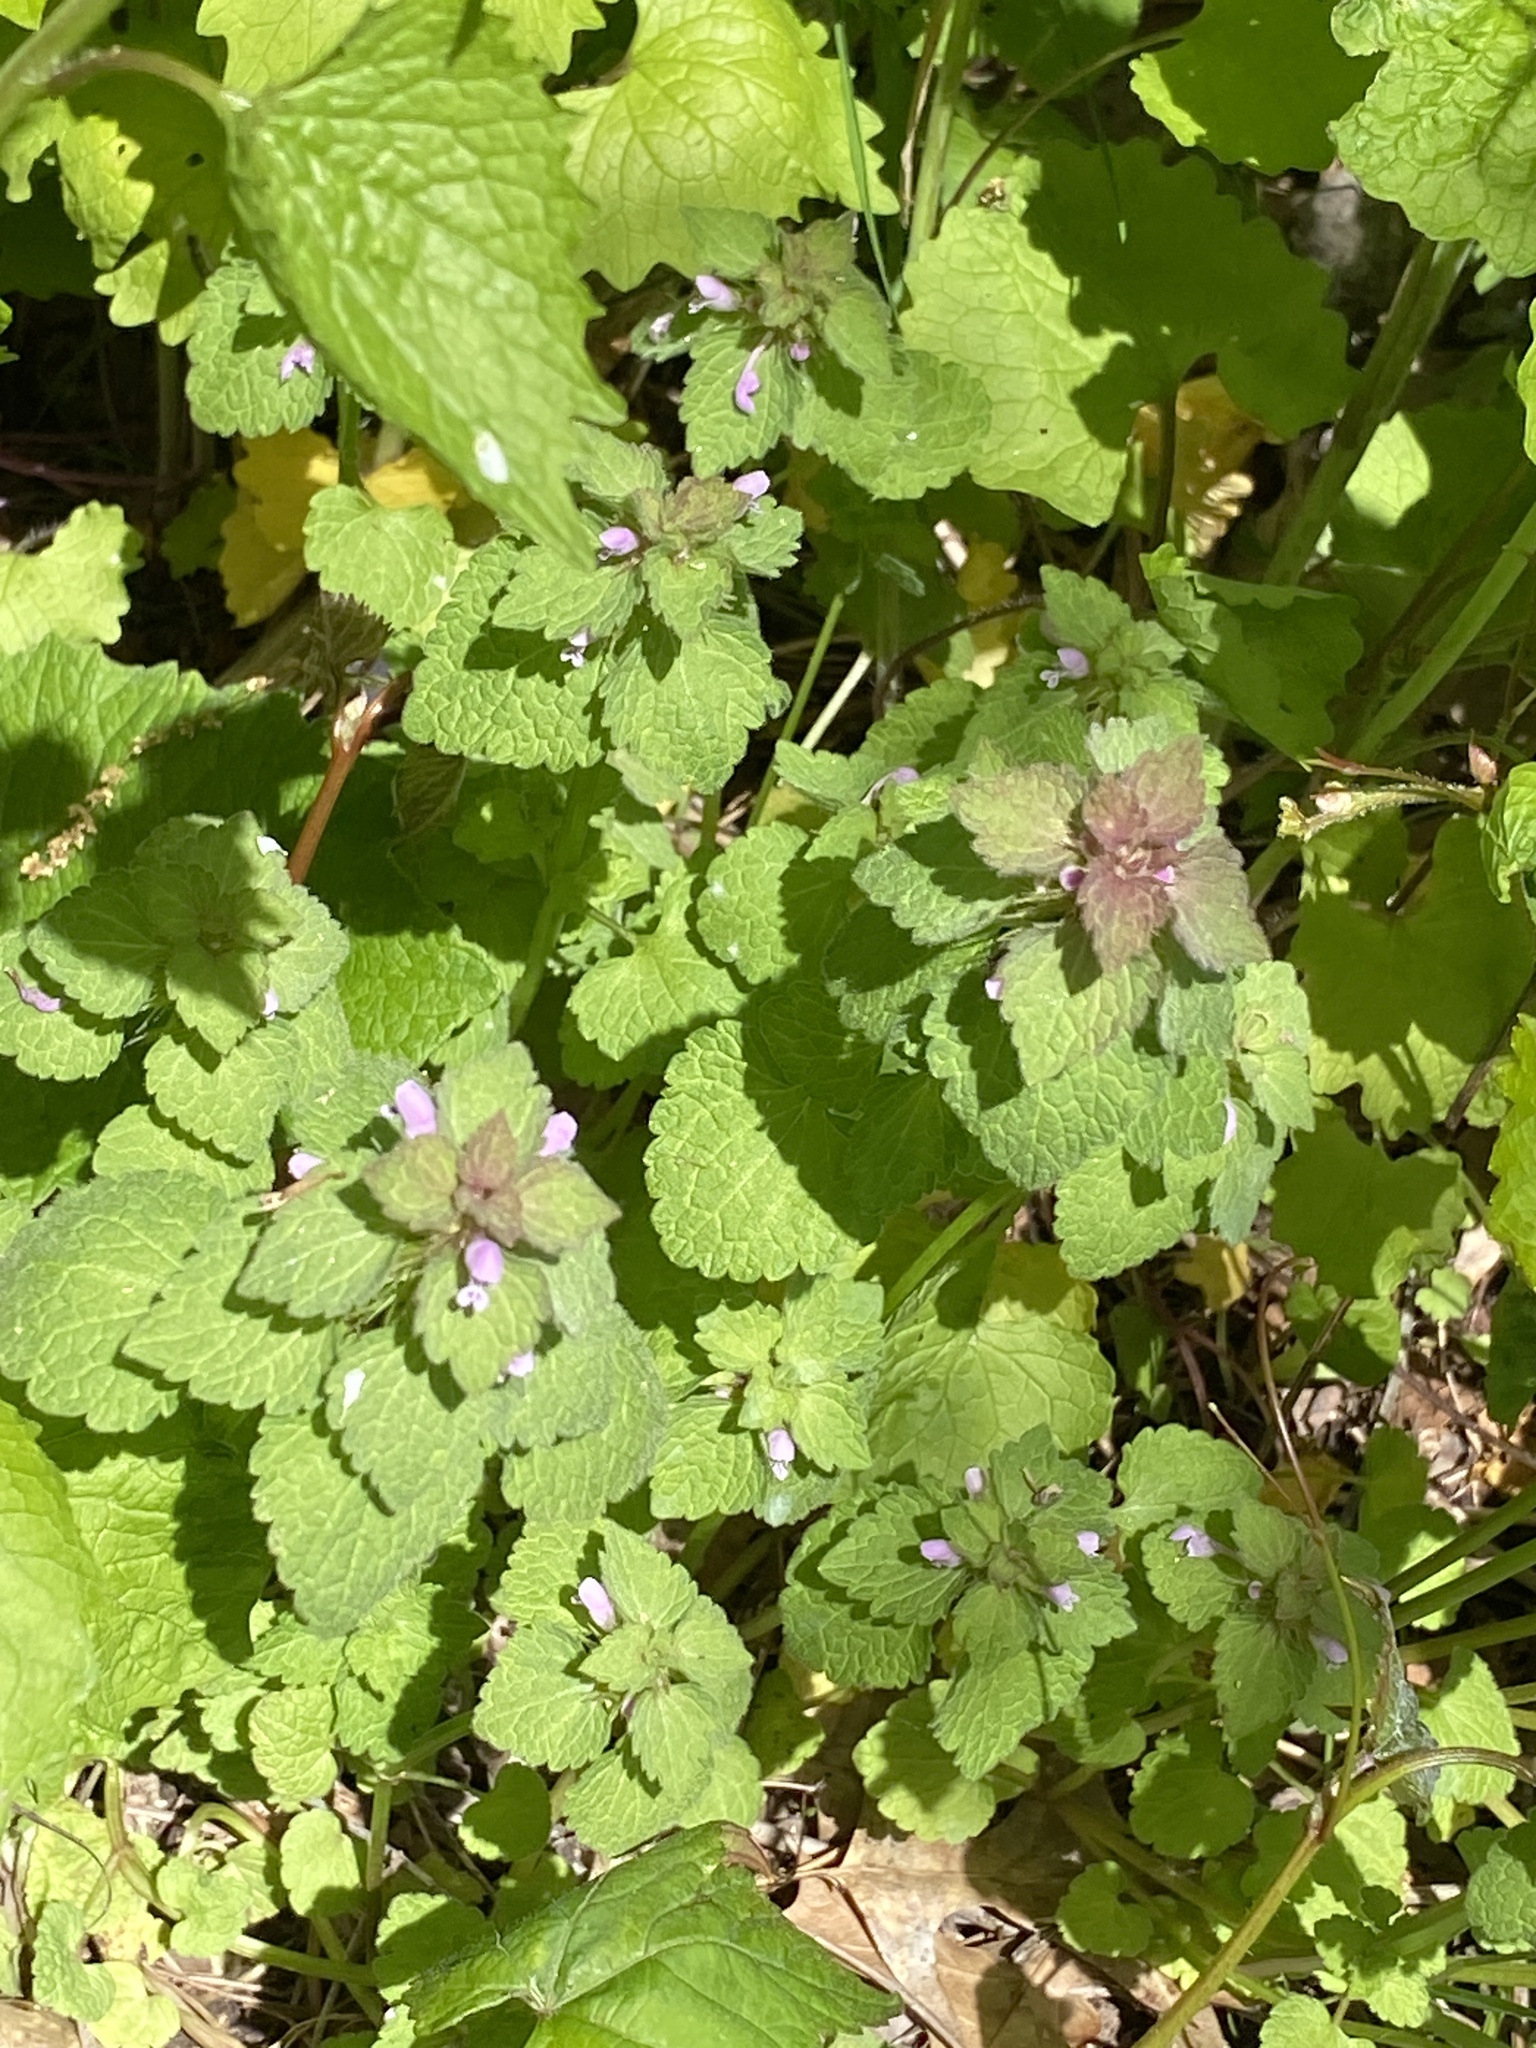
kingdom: Plantae
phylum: Tracheophyta
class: Magnoliopsida
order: Lamiales
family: Lamiaceae
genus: Lamium
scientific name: Lamium purpureum
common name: Red dead-nettle
